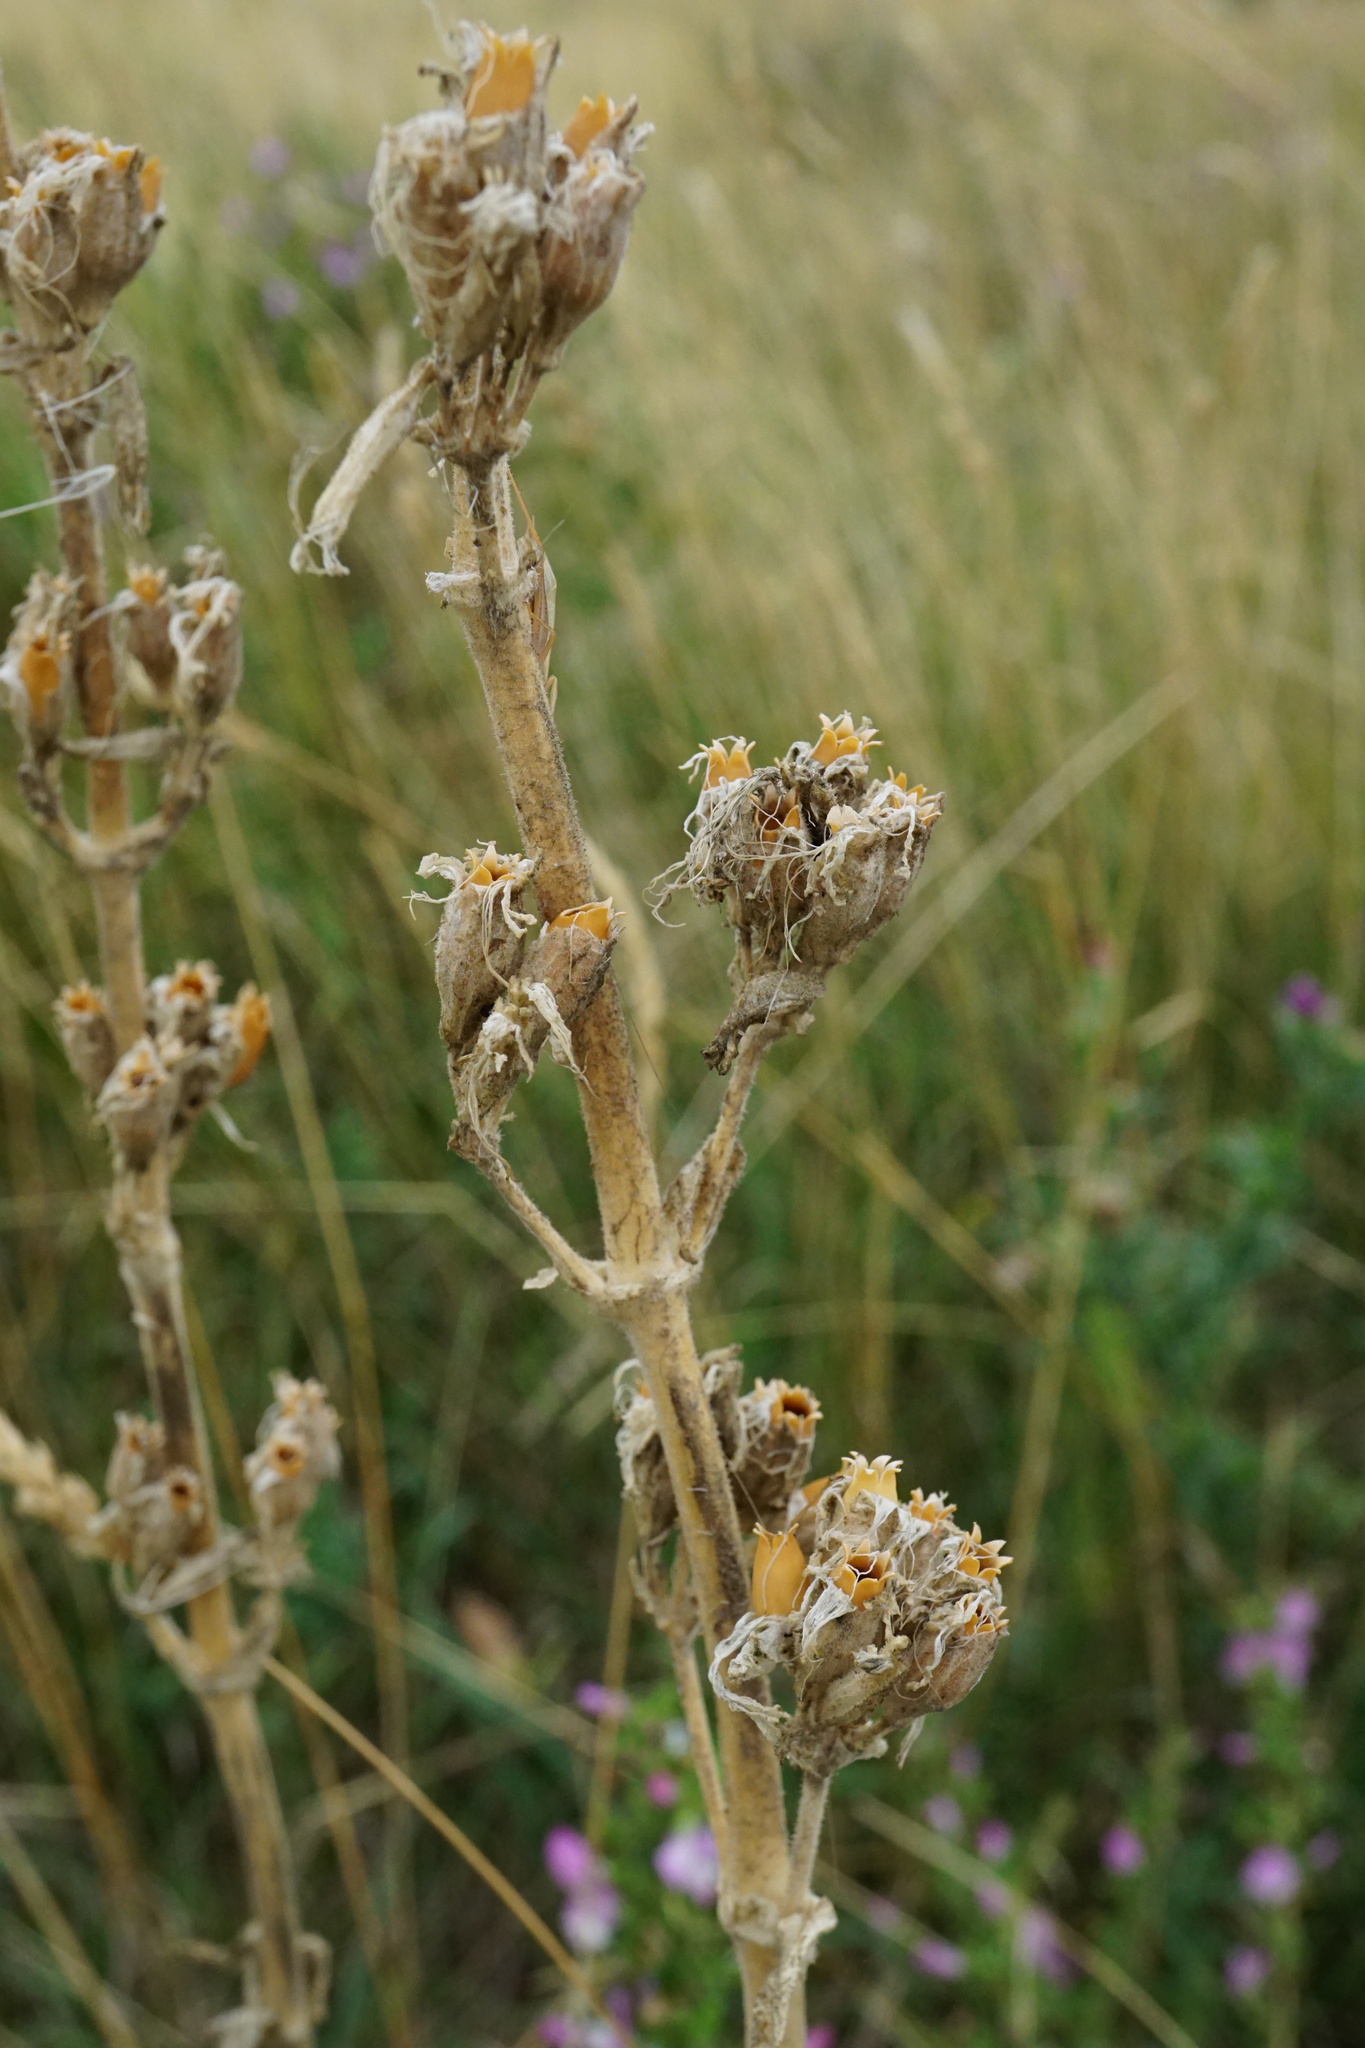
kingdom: Plantae
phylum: Tracheophyta
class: Magnoliopsida
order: Caryophyllales
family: Caryophyllaceae
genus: Silene
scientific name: Silene viscosa
